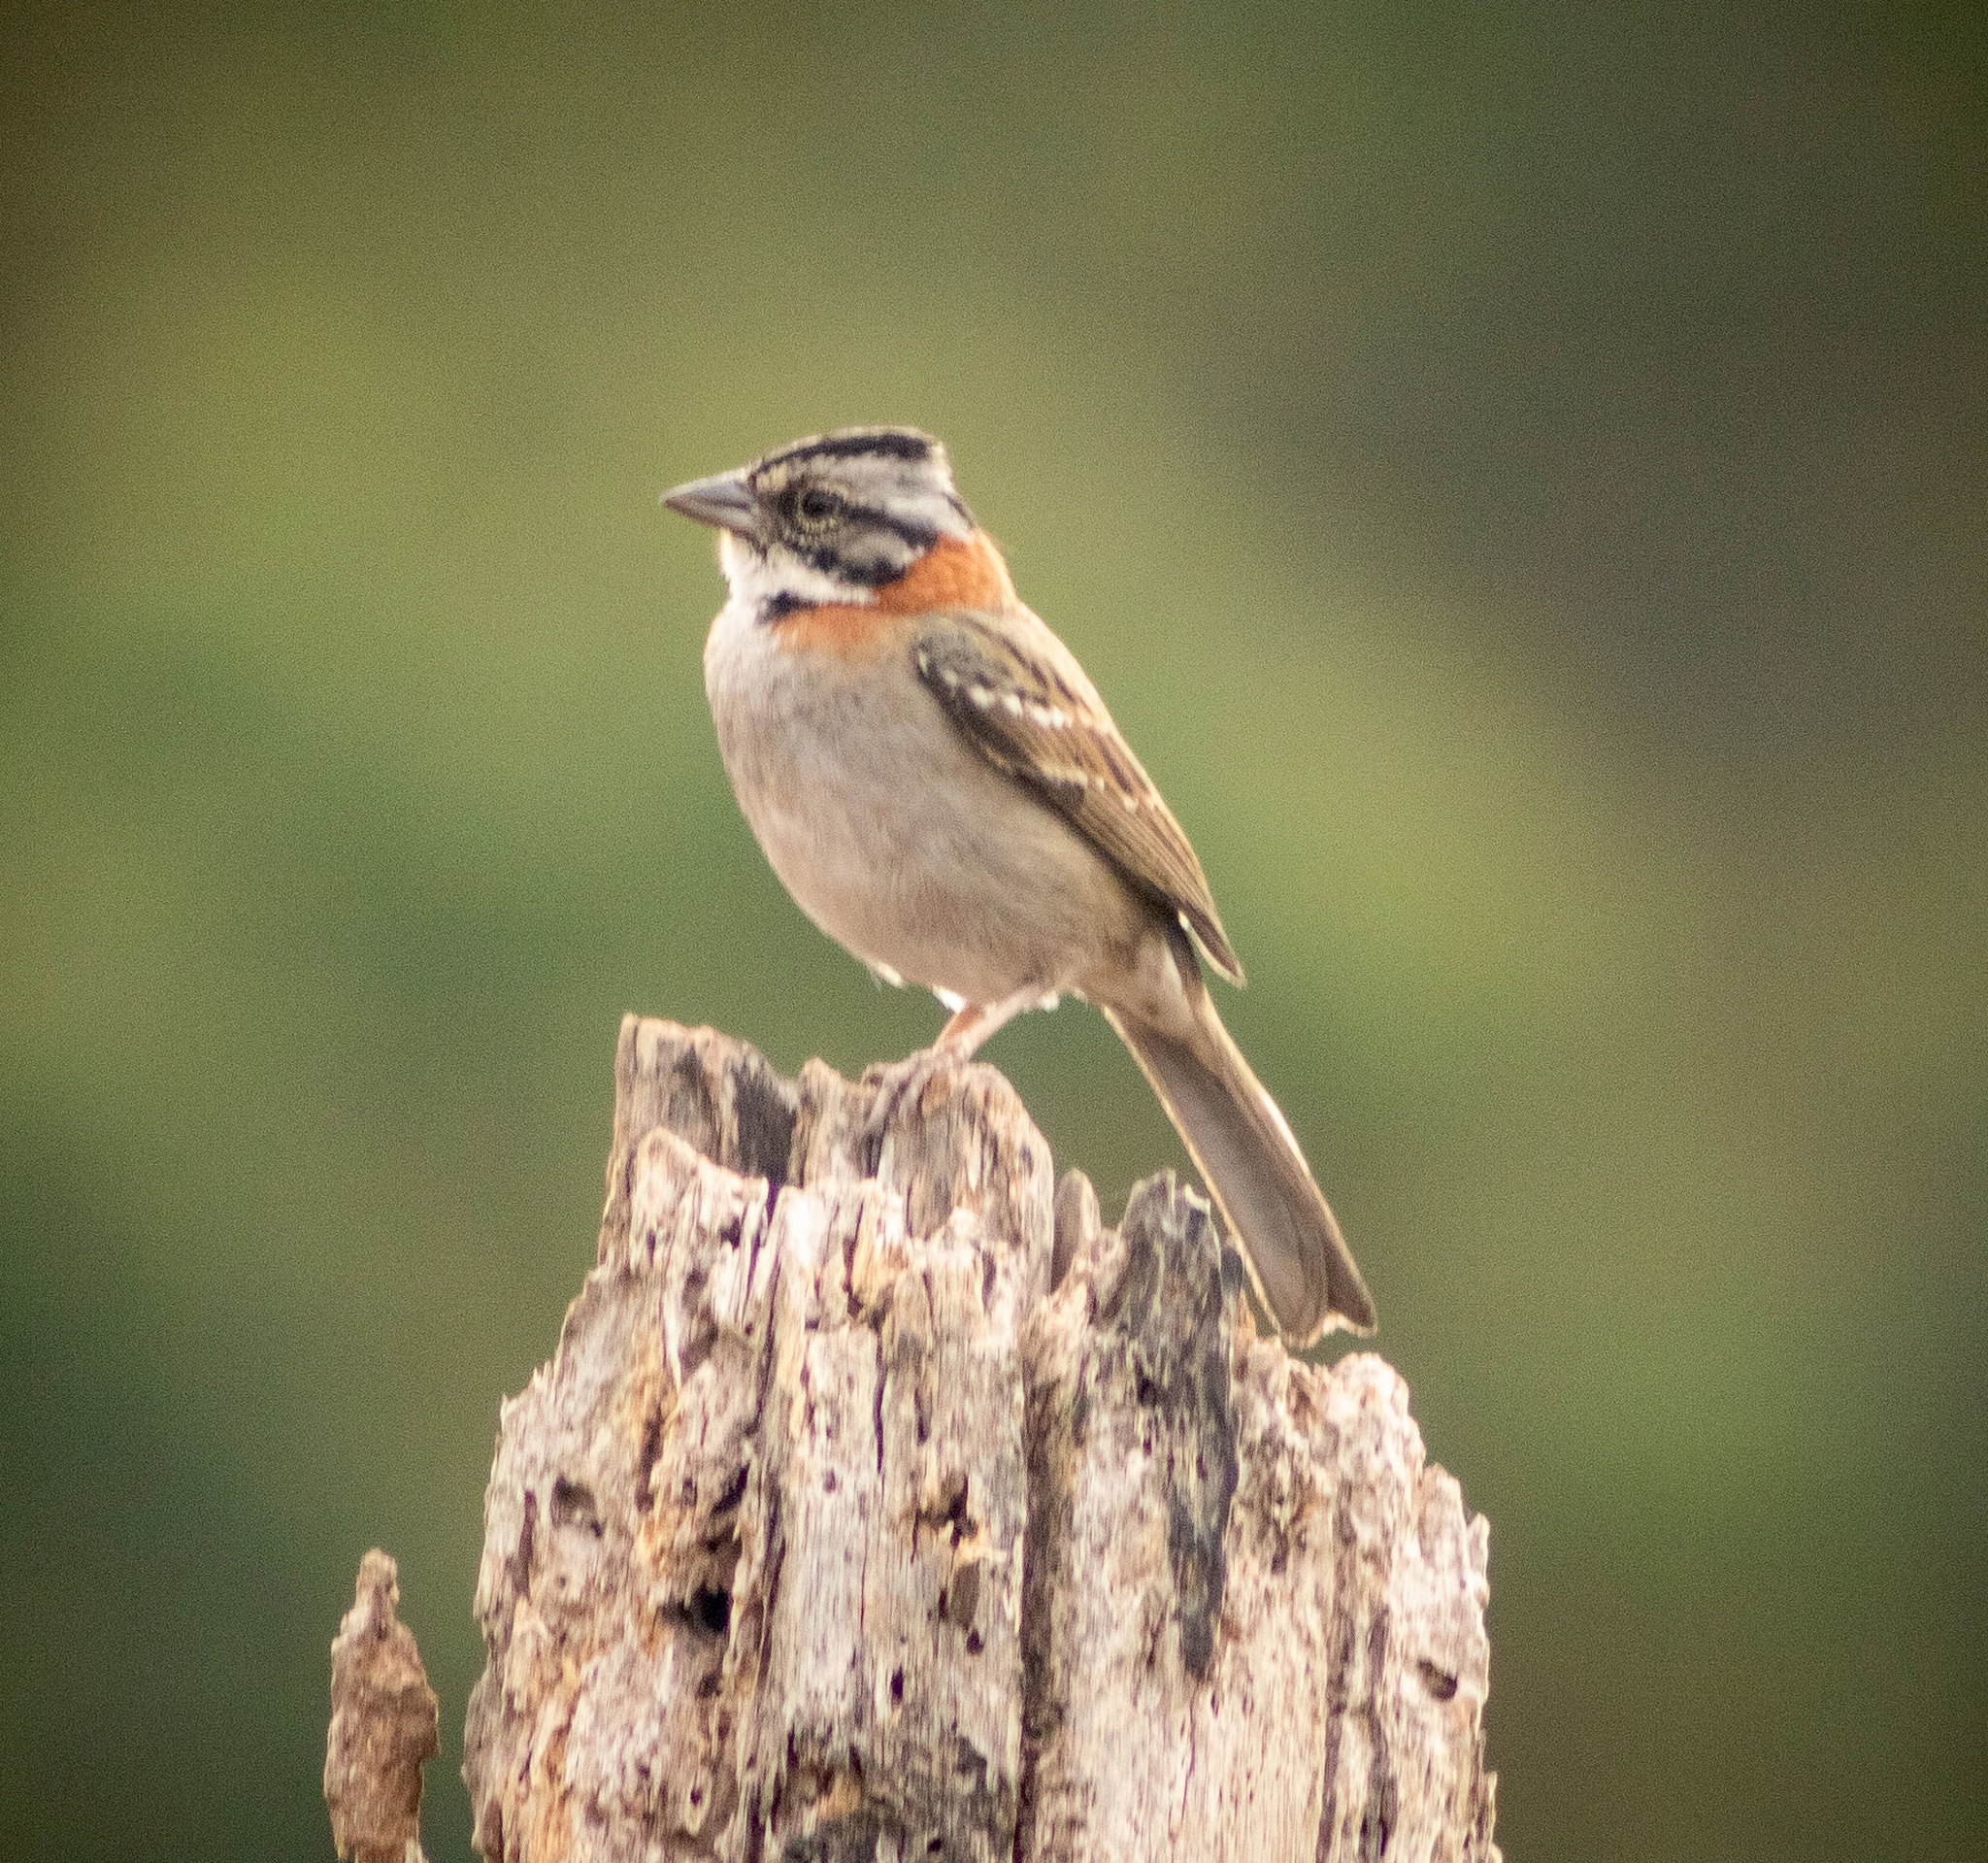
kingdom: Animalia
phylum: Chordata
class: Aves
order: Passeriformes
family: Passerellidae
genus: Zonotrichia
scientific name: Zonotrichia capensis
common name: Rufous-collared sparrow
